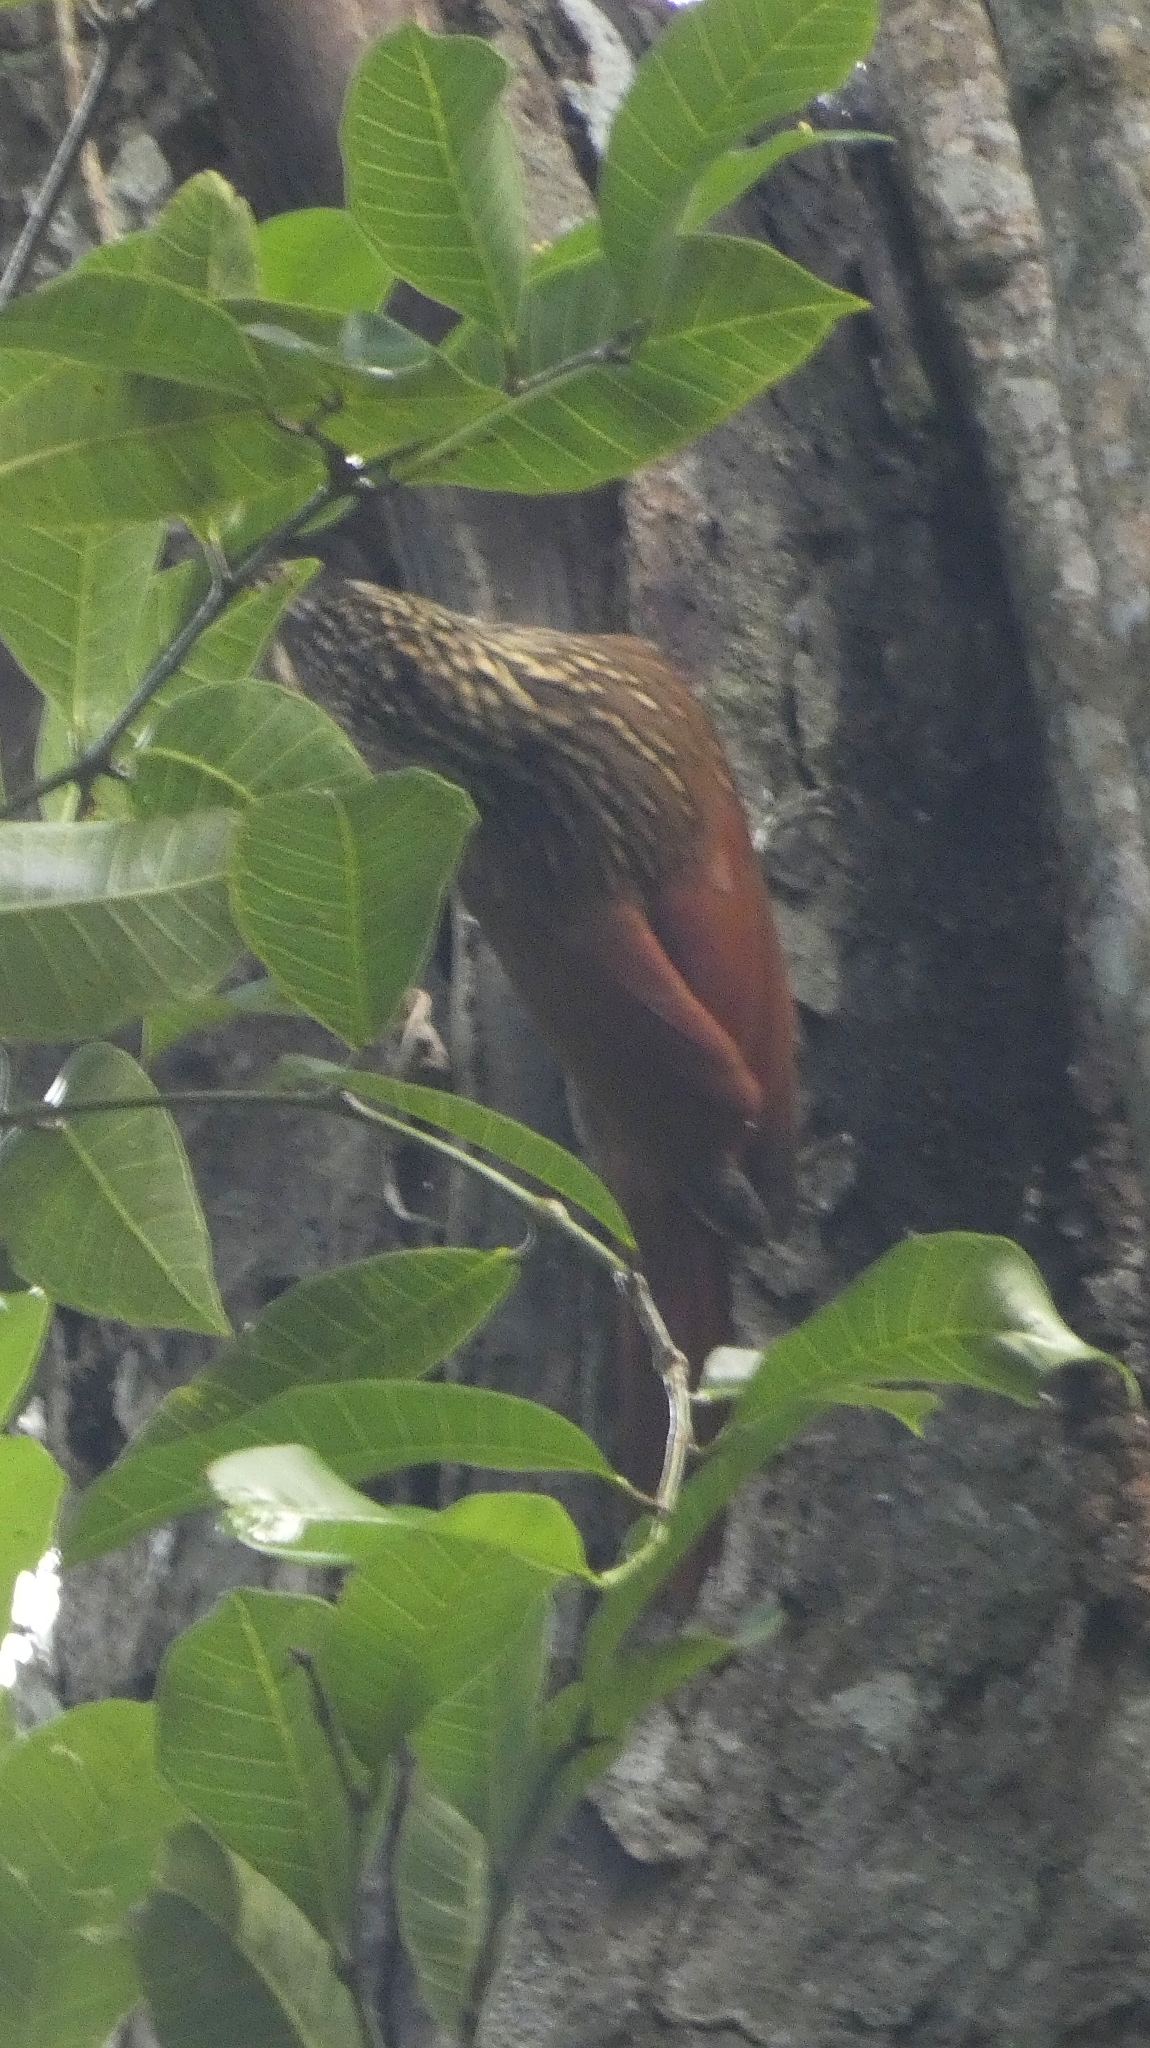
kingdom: Animalia
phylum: Chordata
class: Aves
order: Passeriformes
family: Furnariidae
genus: Xiphorhynchus
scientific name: Xiphorhynchus flavigaster
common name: Ivory-billed woodcreeper
